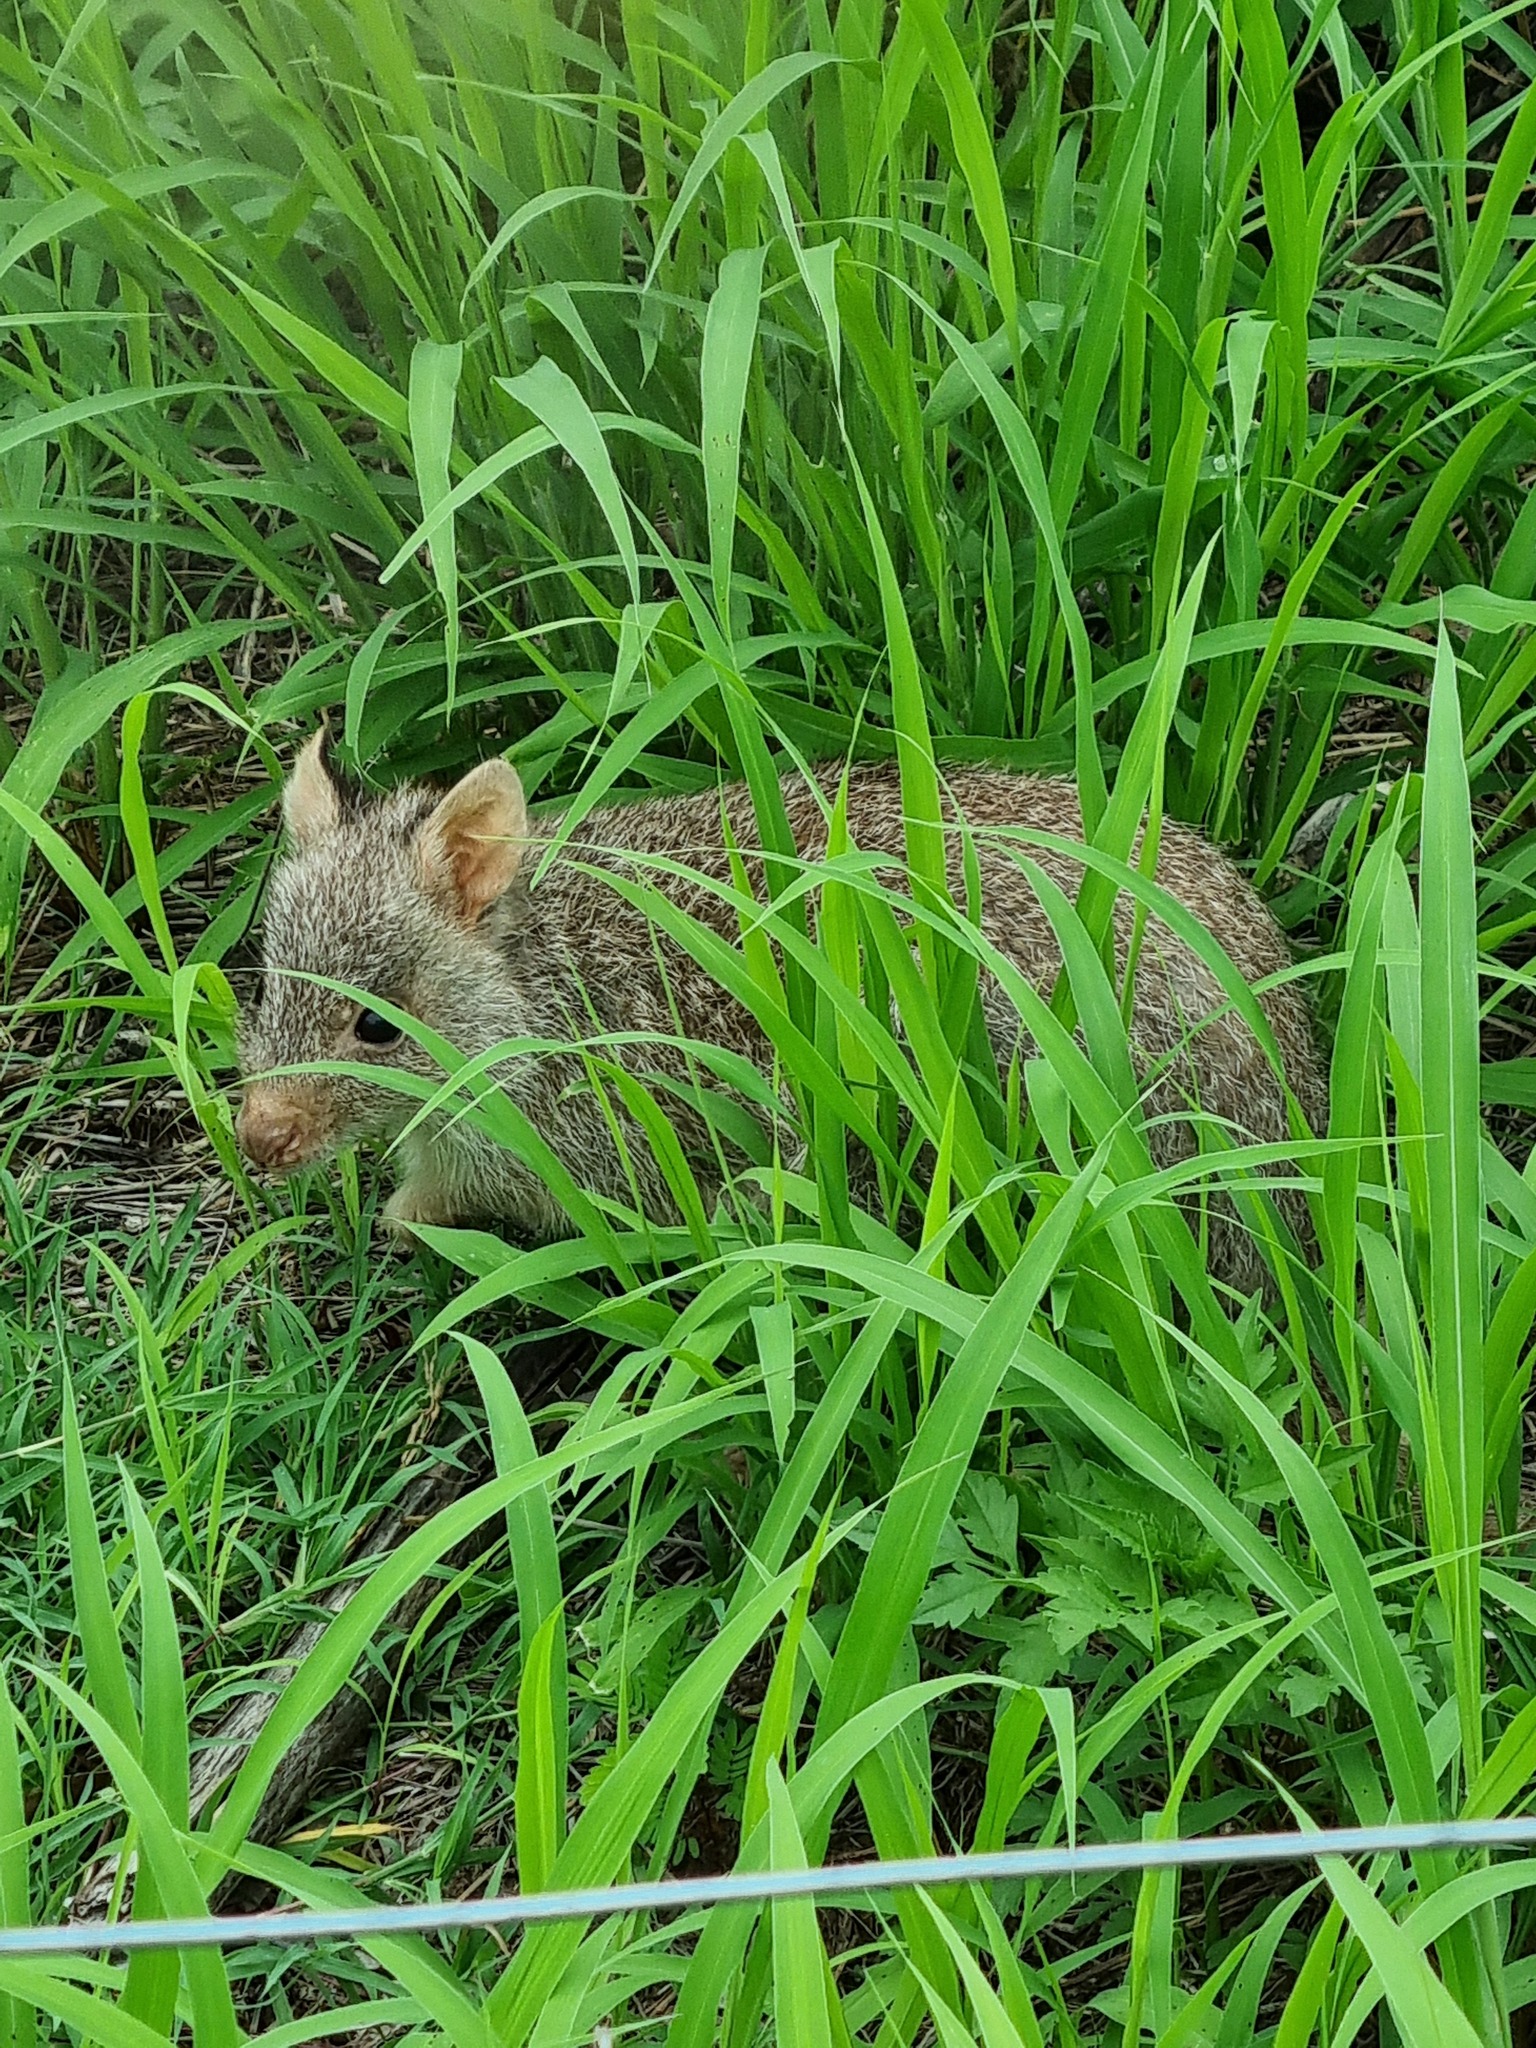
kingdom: Animalia
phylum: Chordata
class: Mammalia
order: Diprotodontia
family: Potoroidae
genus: Aepyprymnus
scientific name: Aepyprymnus rufescens
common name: Rufous rat-kangaroo
